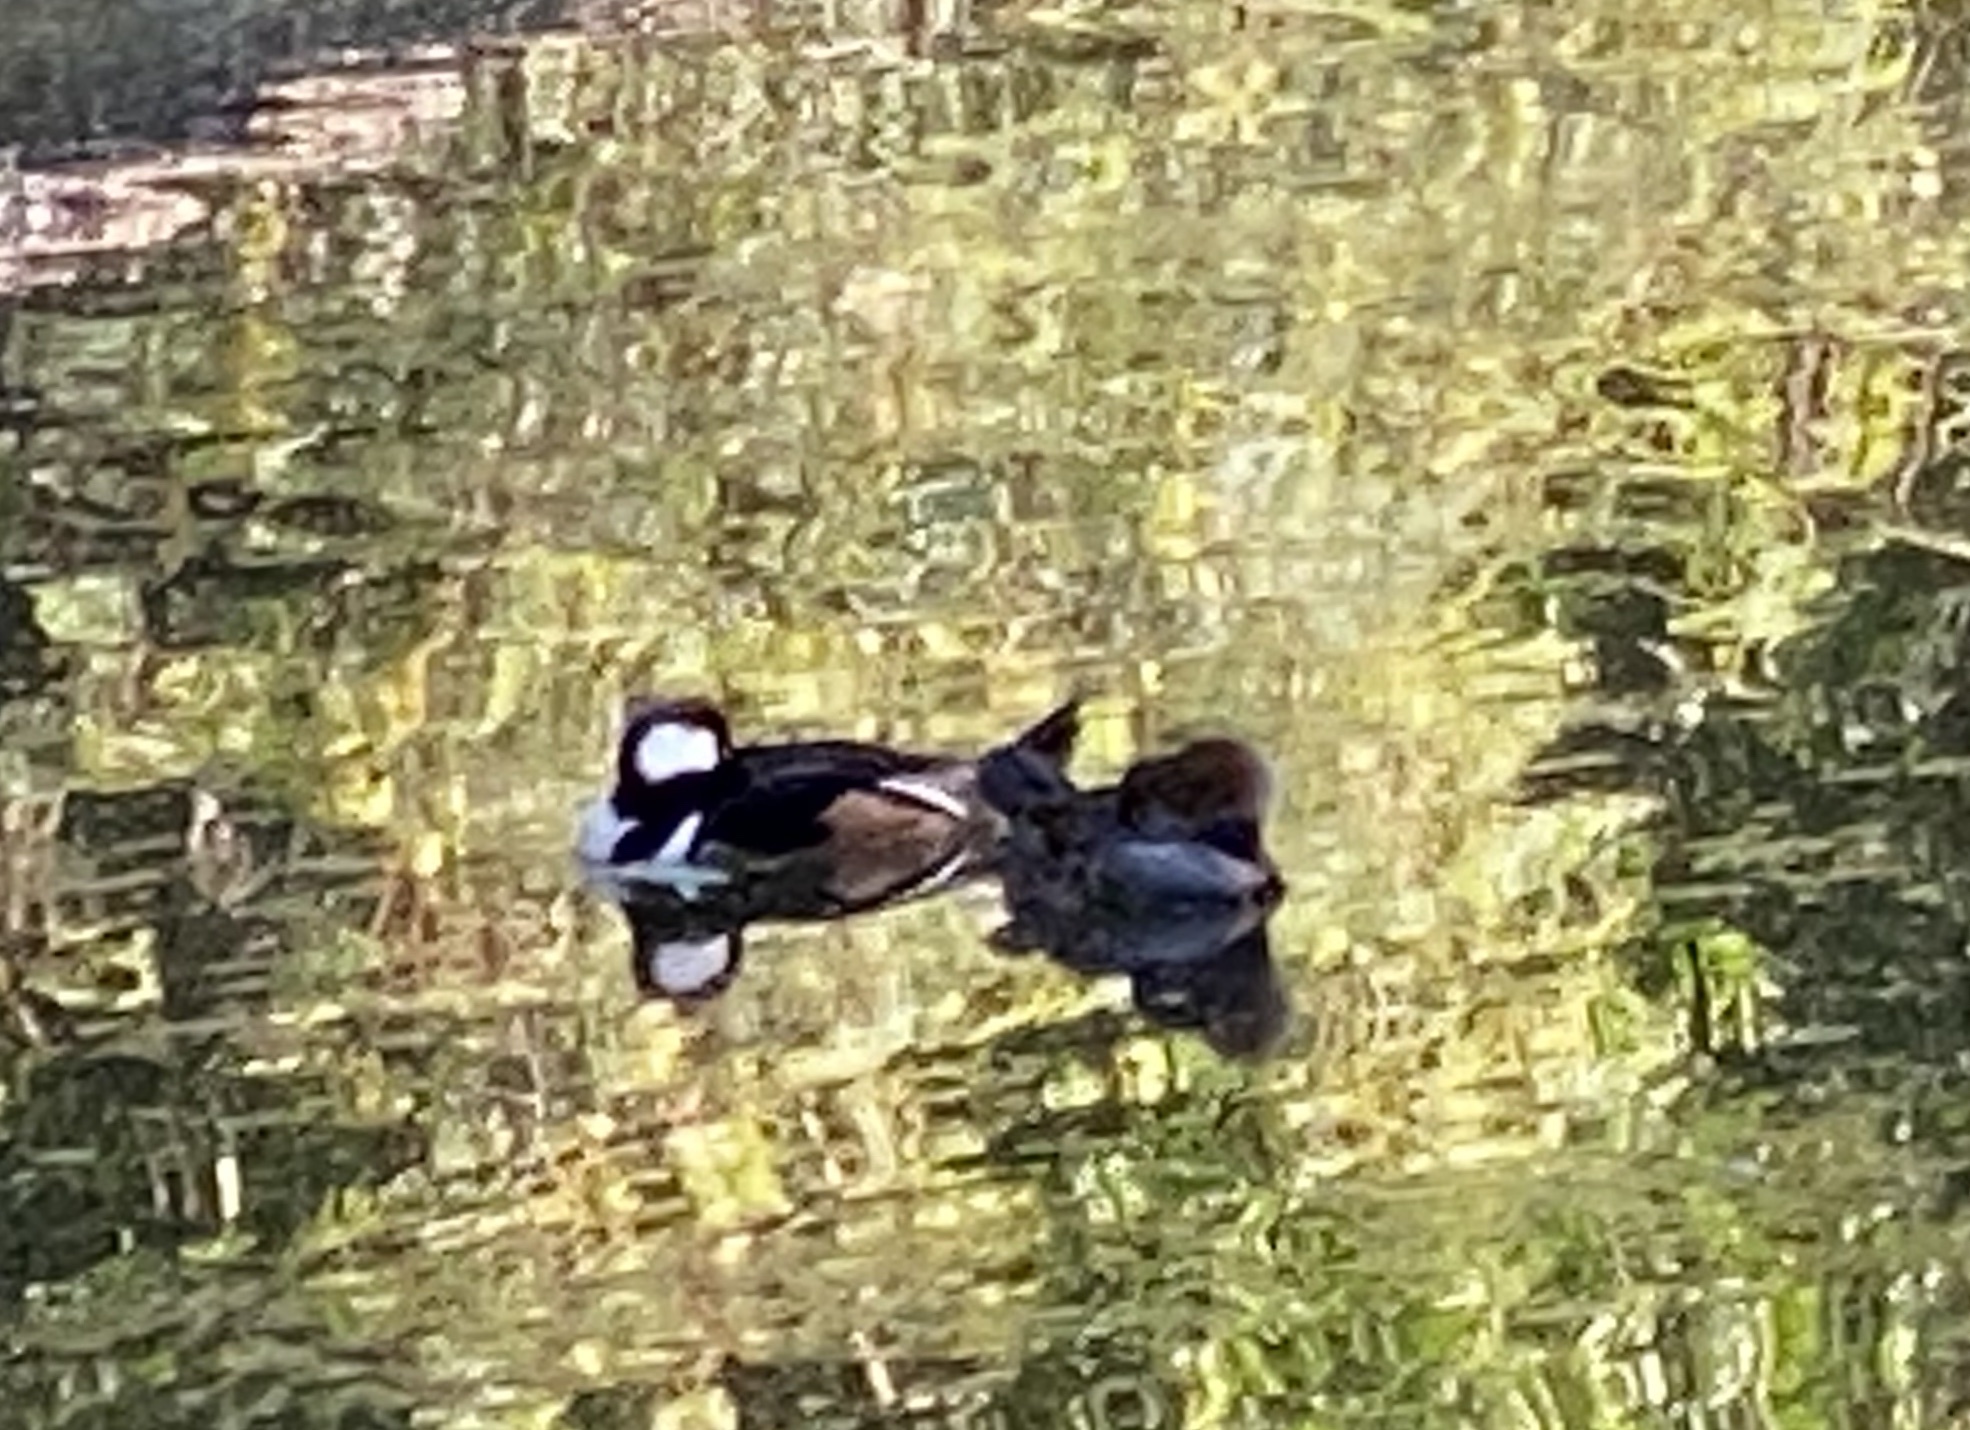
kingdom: Animalia
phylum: Chordata
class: Aves
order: Anseriformes
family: Anatidae
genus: Lophodytes
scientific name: Lophodytes cucullatus
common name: Hooded merganser
